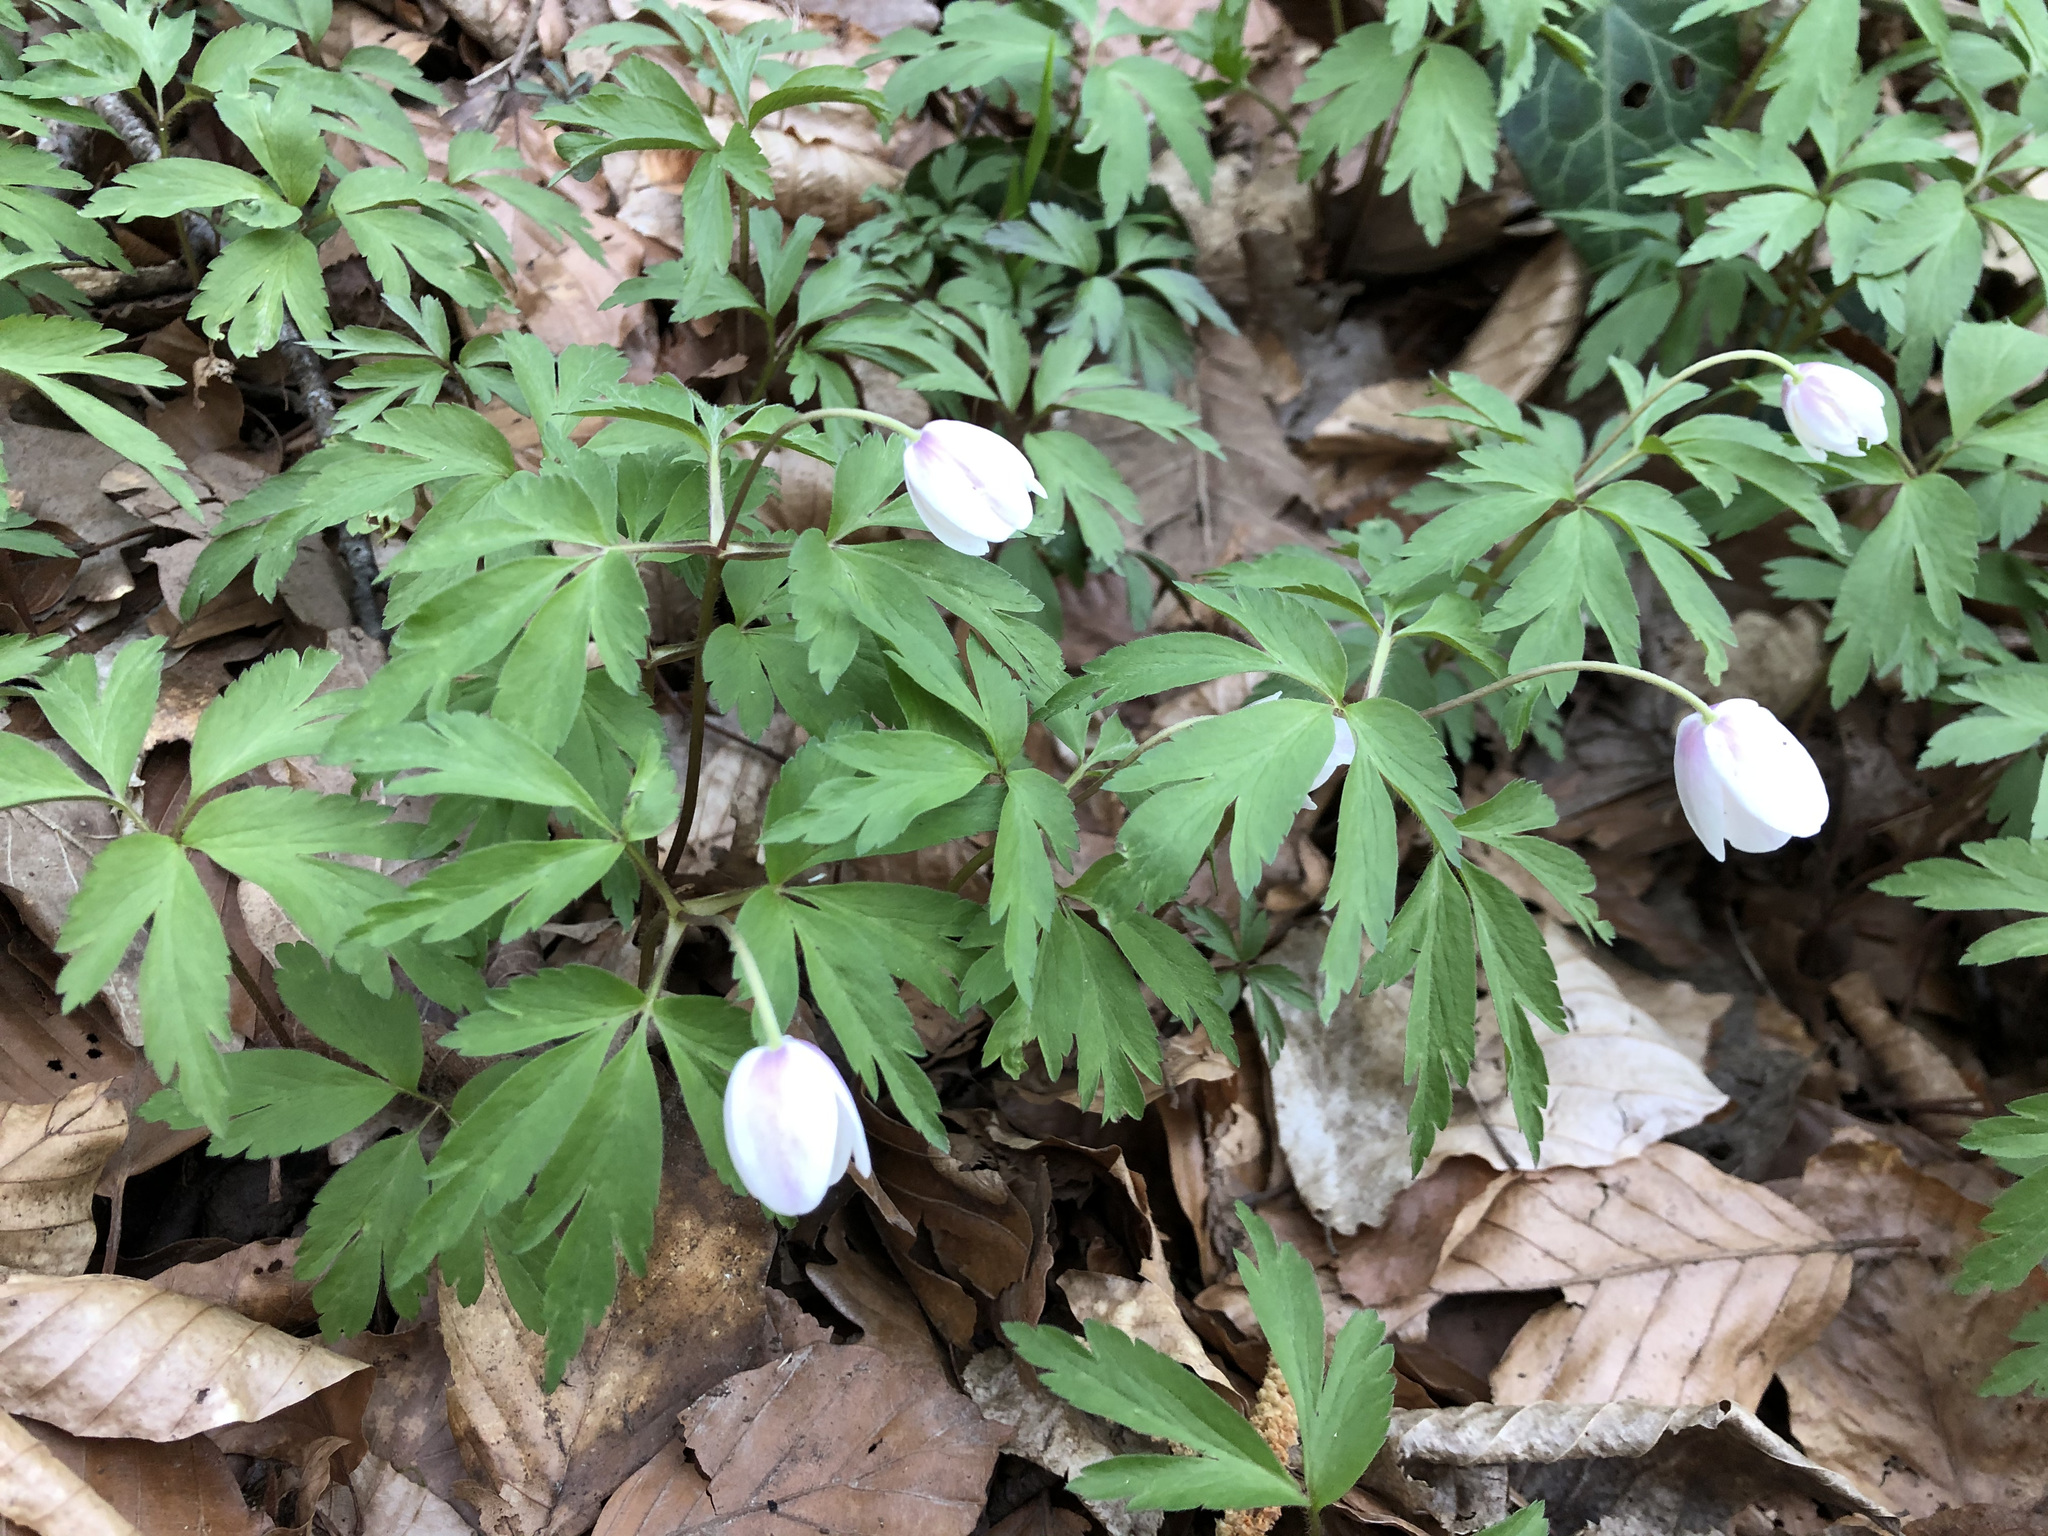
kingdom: Plantae
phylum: Tracheophyta
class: Magnoliopsida
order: Ranunculales
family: Ranunculaceae
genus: Anemone
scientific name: Anemone nemorosa
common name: Wood anemone
